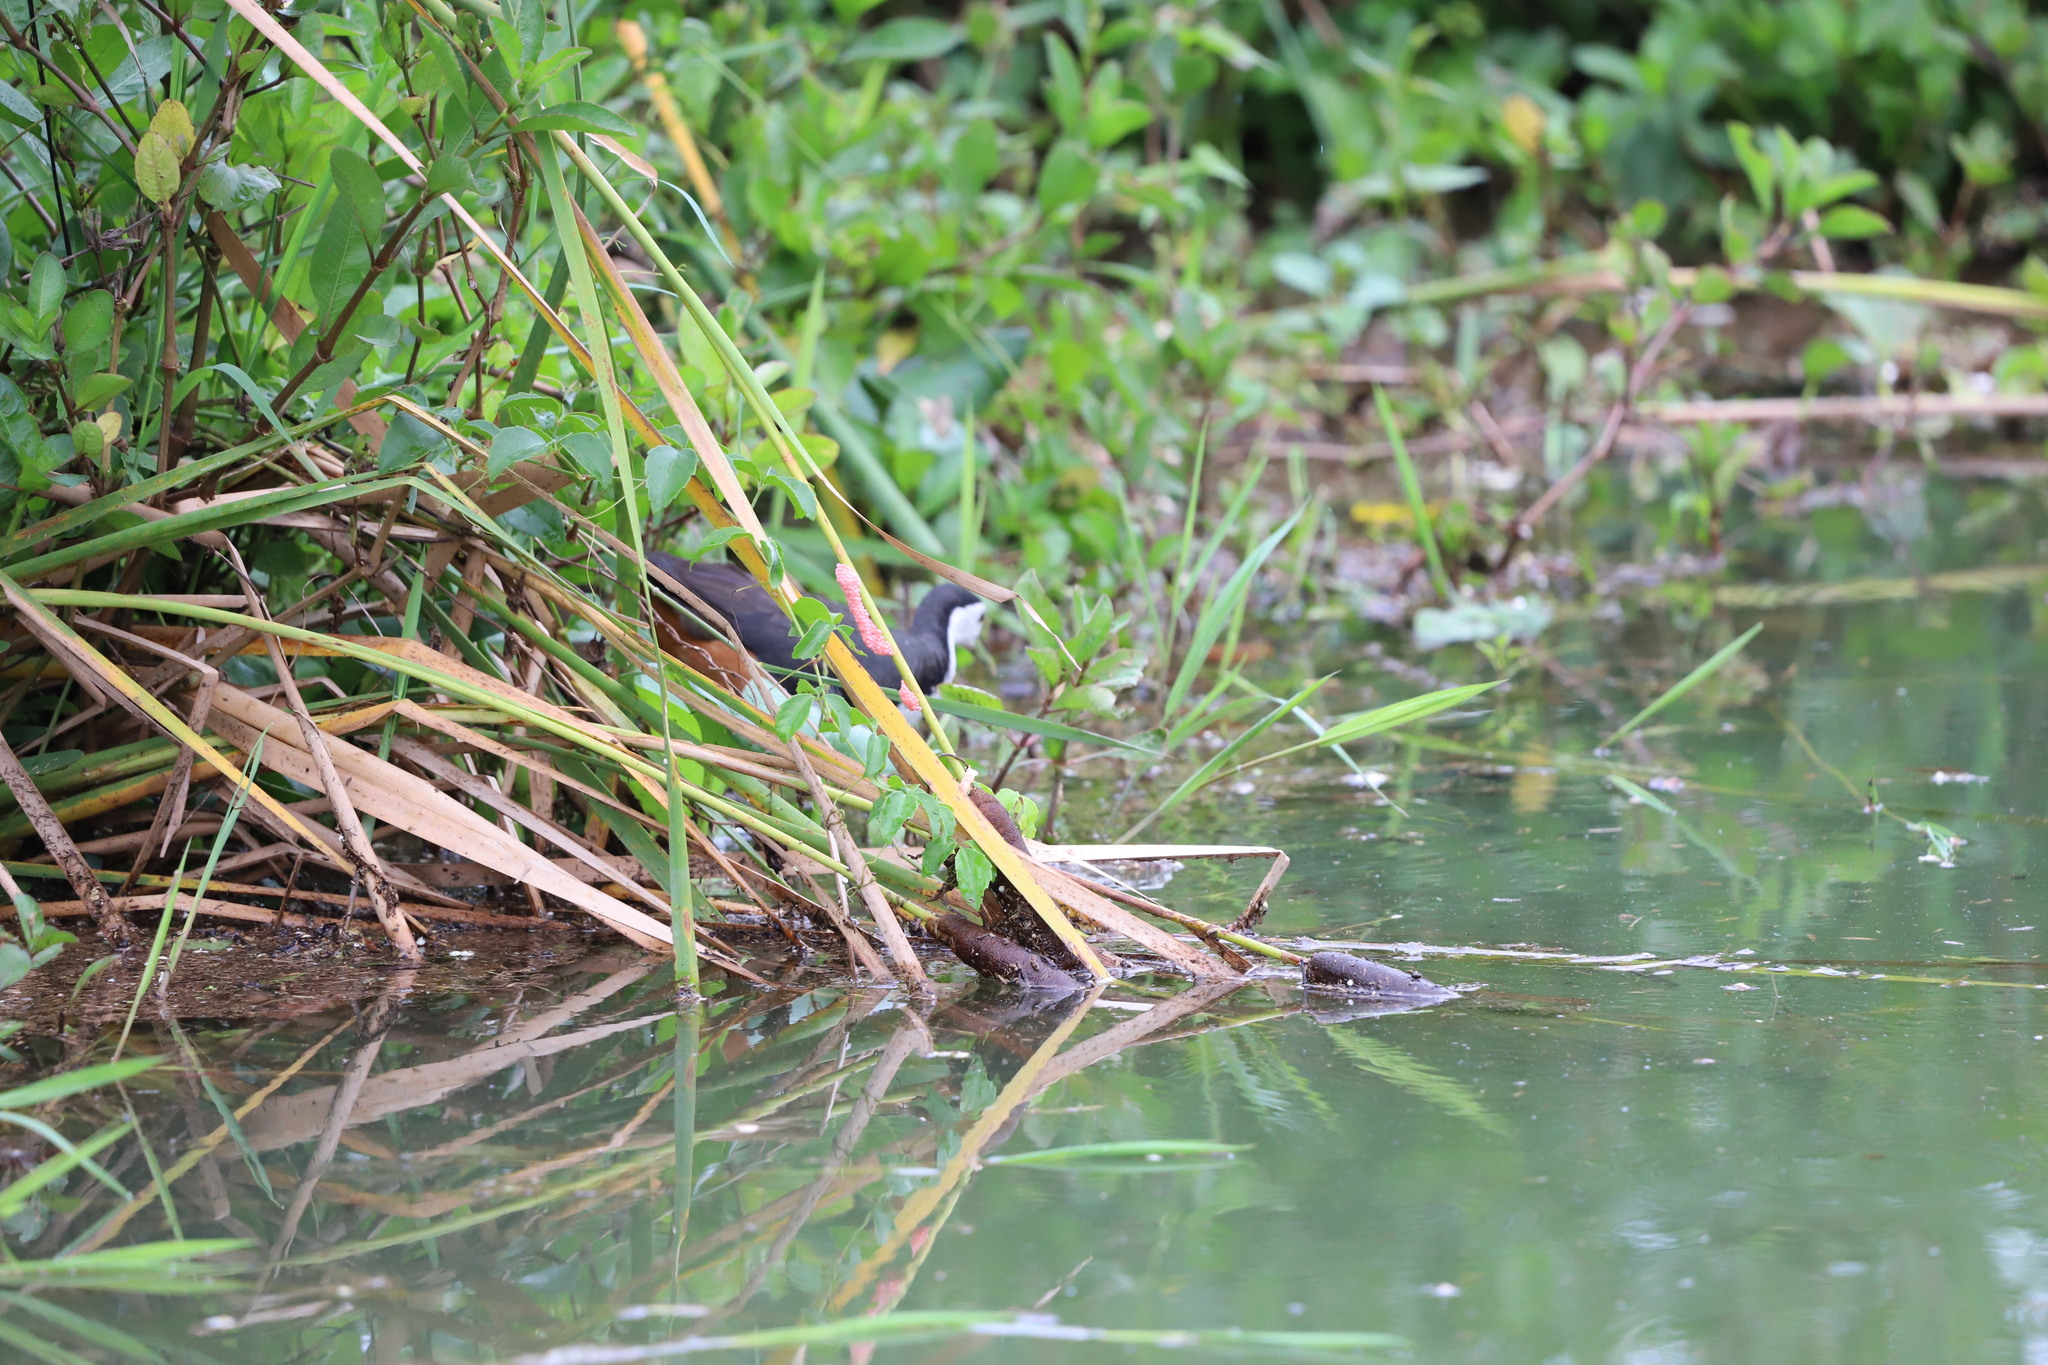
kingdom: Animalia
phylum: Chordata
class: Aves
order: Gruiformes
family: Rallidae
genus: Amaurornis
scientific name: Amaurornis phoenicurus
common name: White-breasted waterhen
